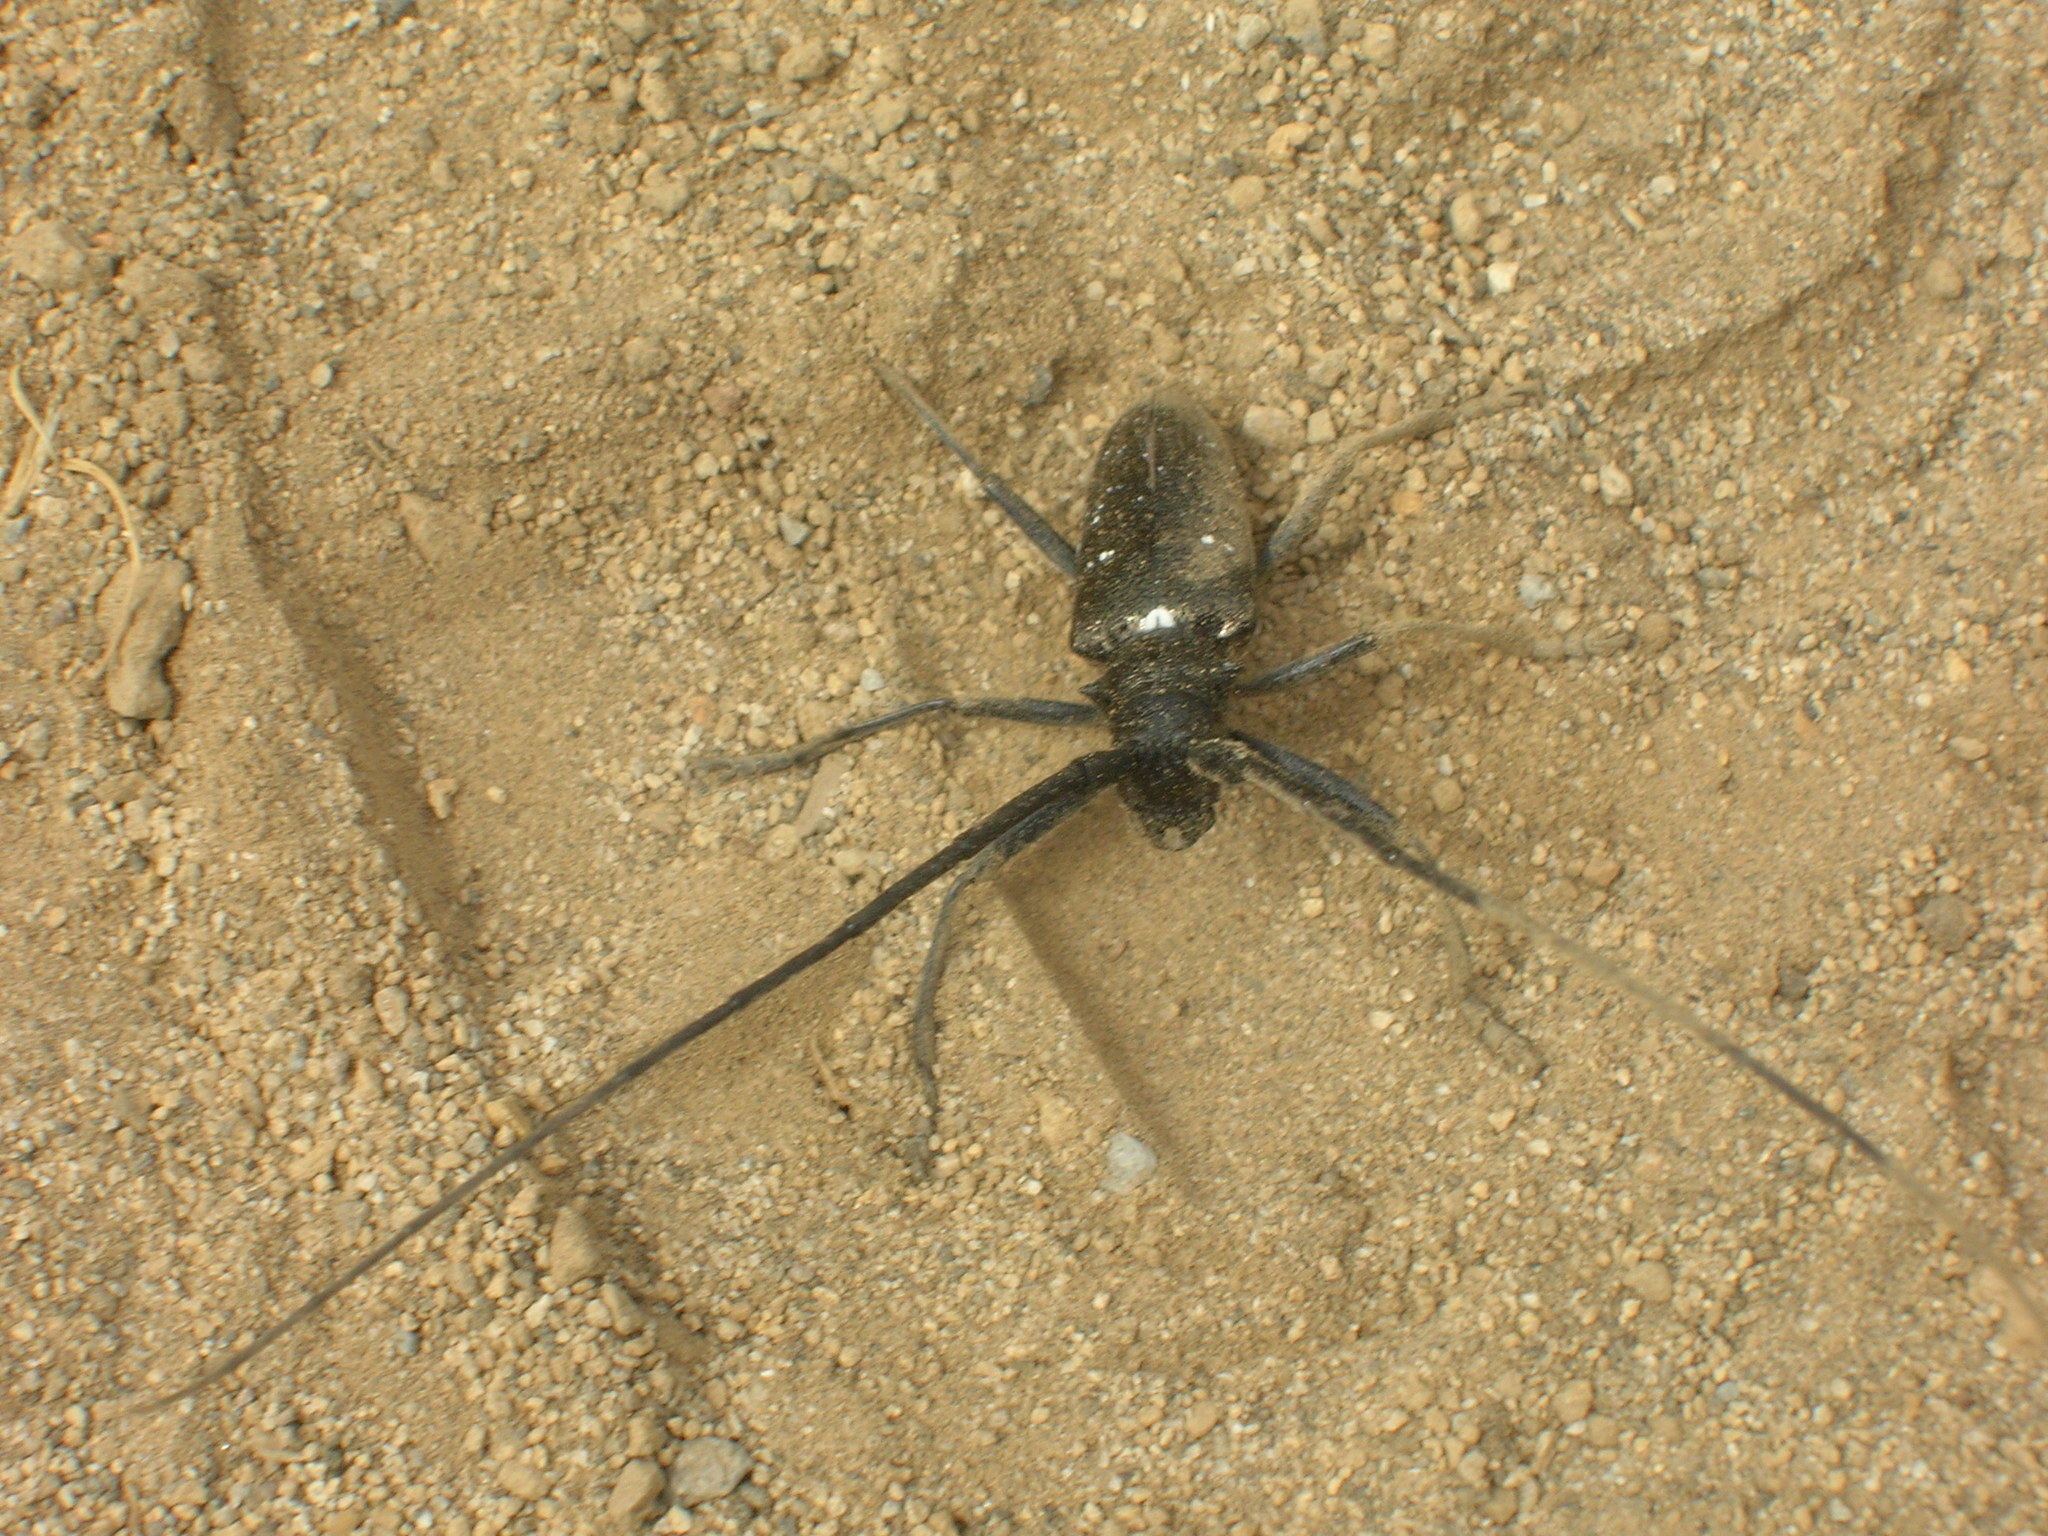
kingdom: Animalia
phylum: Arthropoda
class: Insecta
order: Coleoptera
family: Cerambycidae
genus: Monochamus
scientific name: Monochamus scutellatus
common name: White-spotted sawyer beetle
